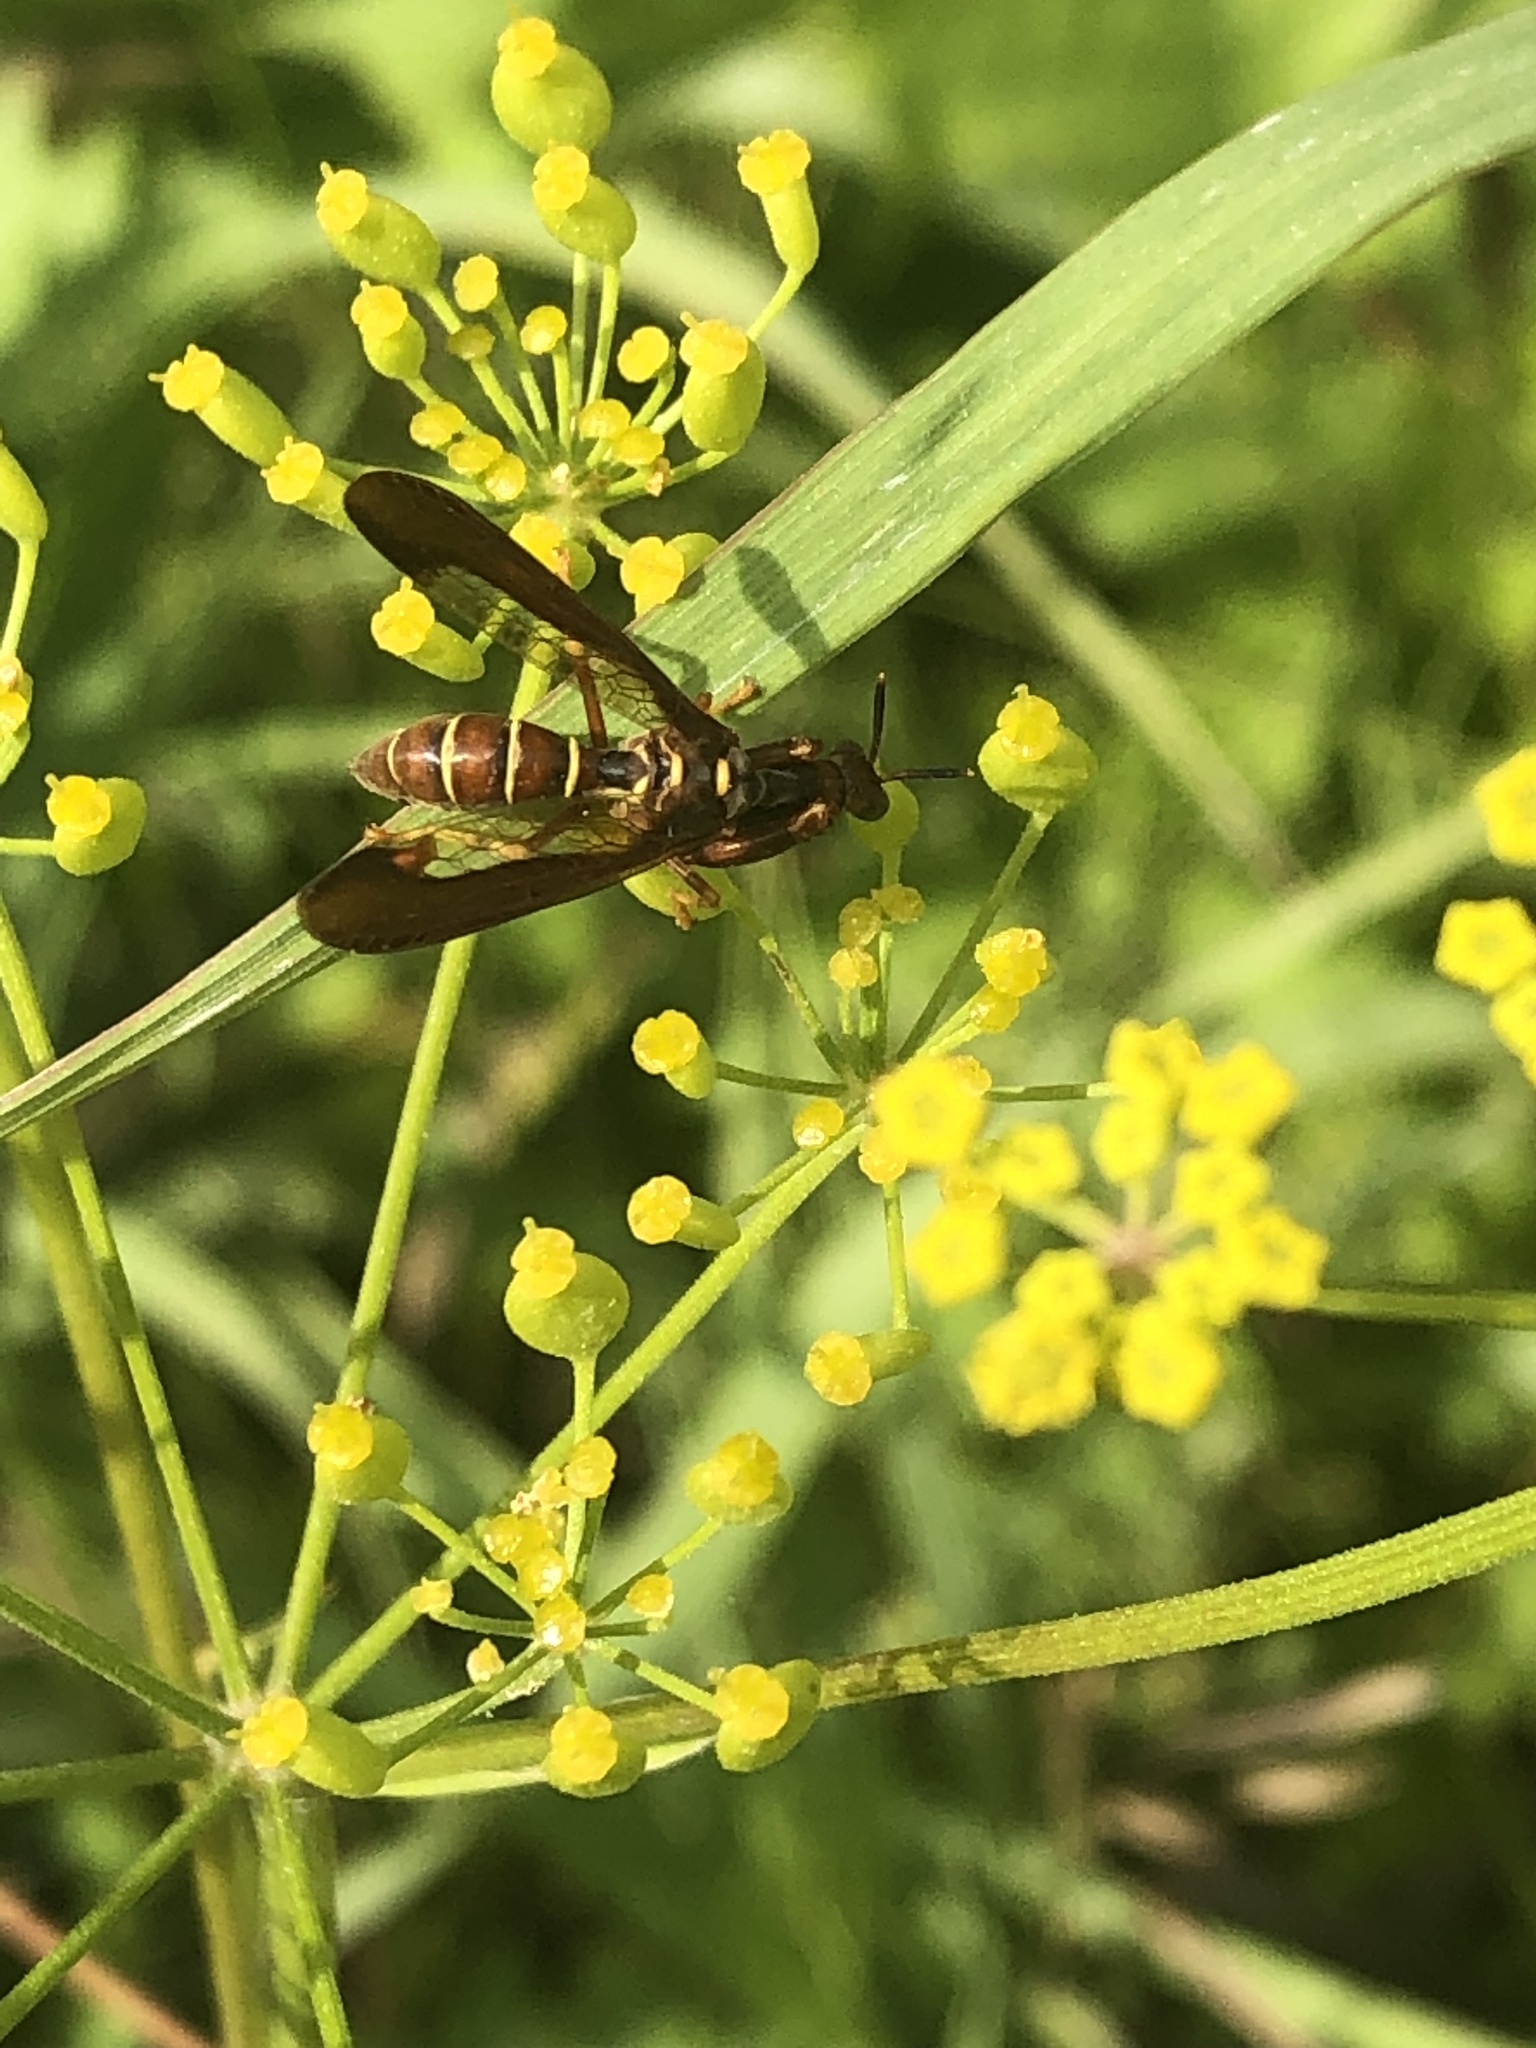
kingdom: Animalia
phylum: Arthropoda
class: Insecta
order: Neuroptera
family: Mantispidae
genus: Climaciella
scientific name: Climaciella brunnea
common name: Brown wasp mantidfly
